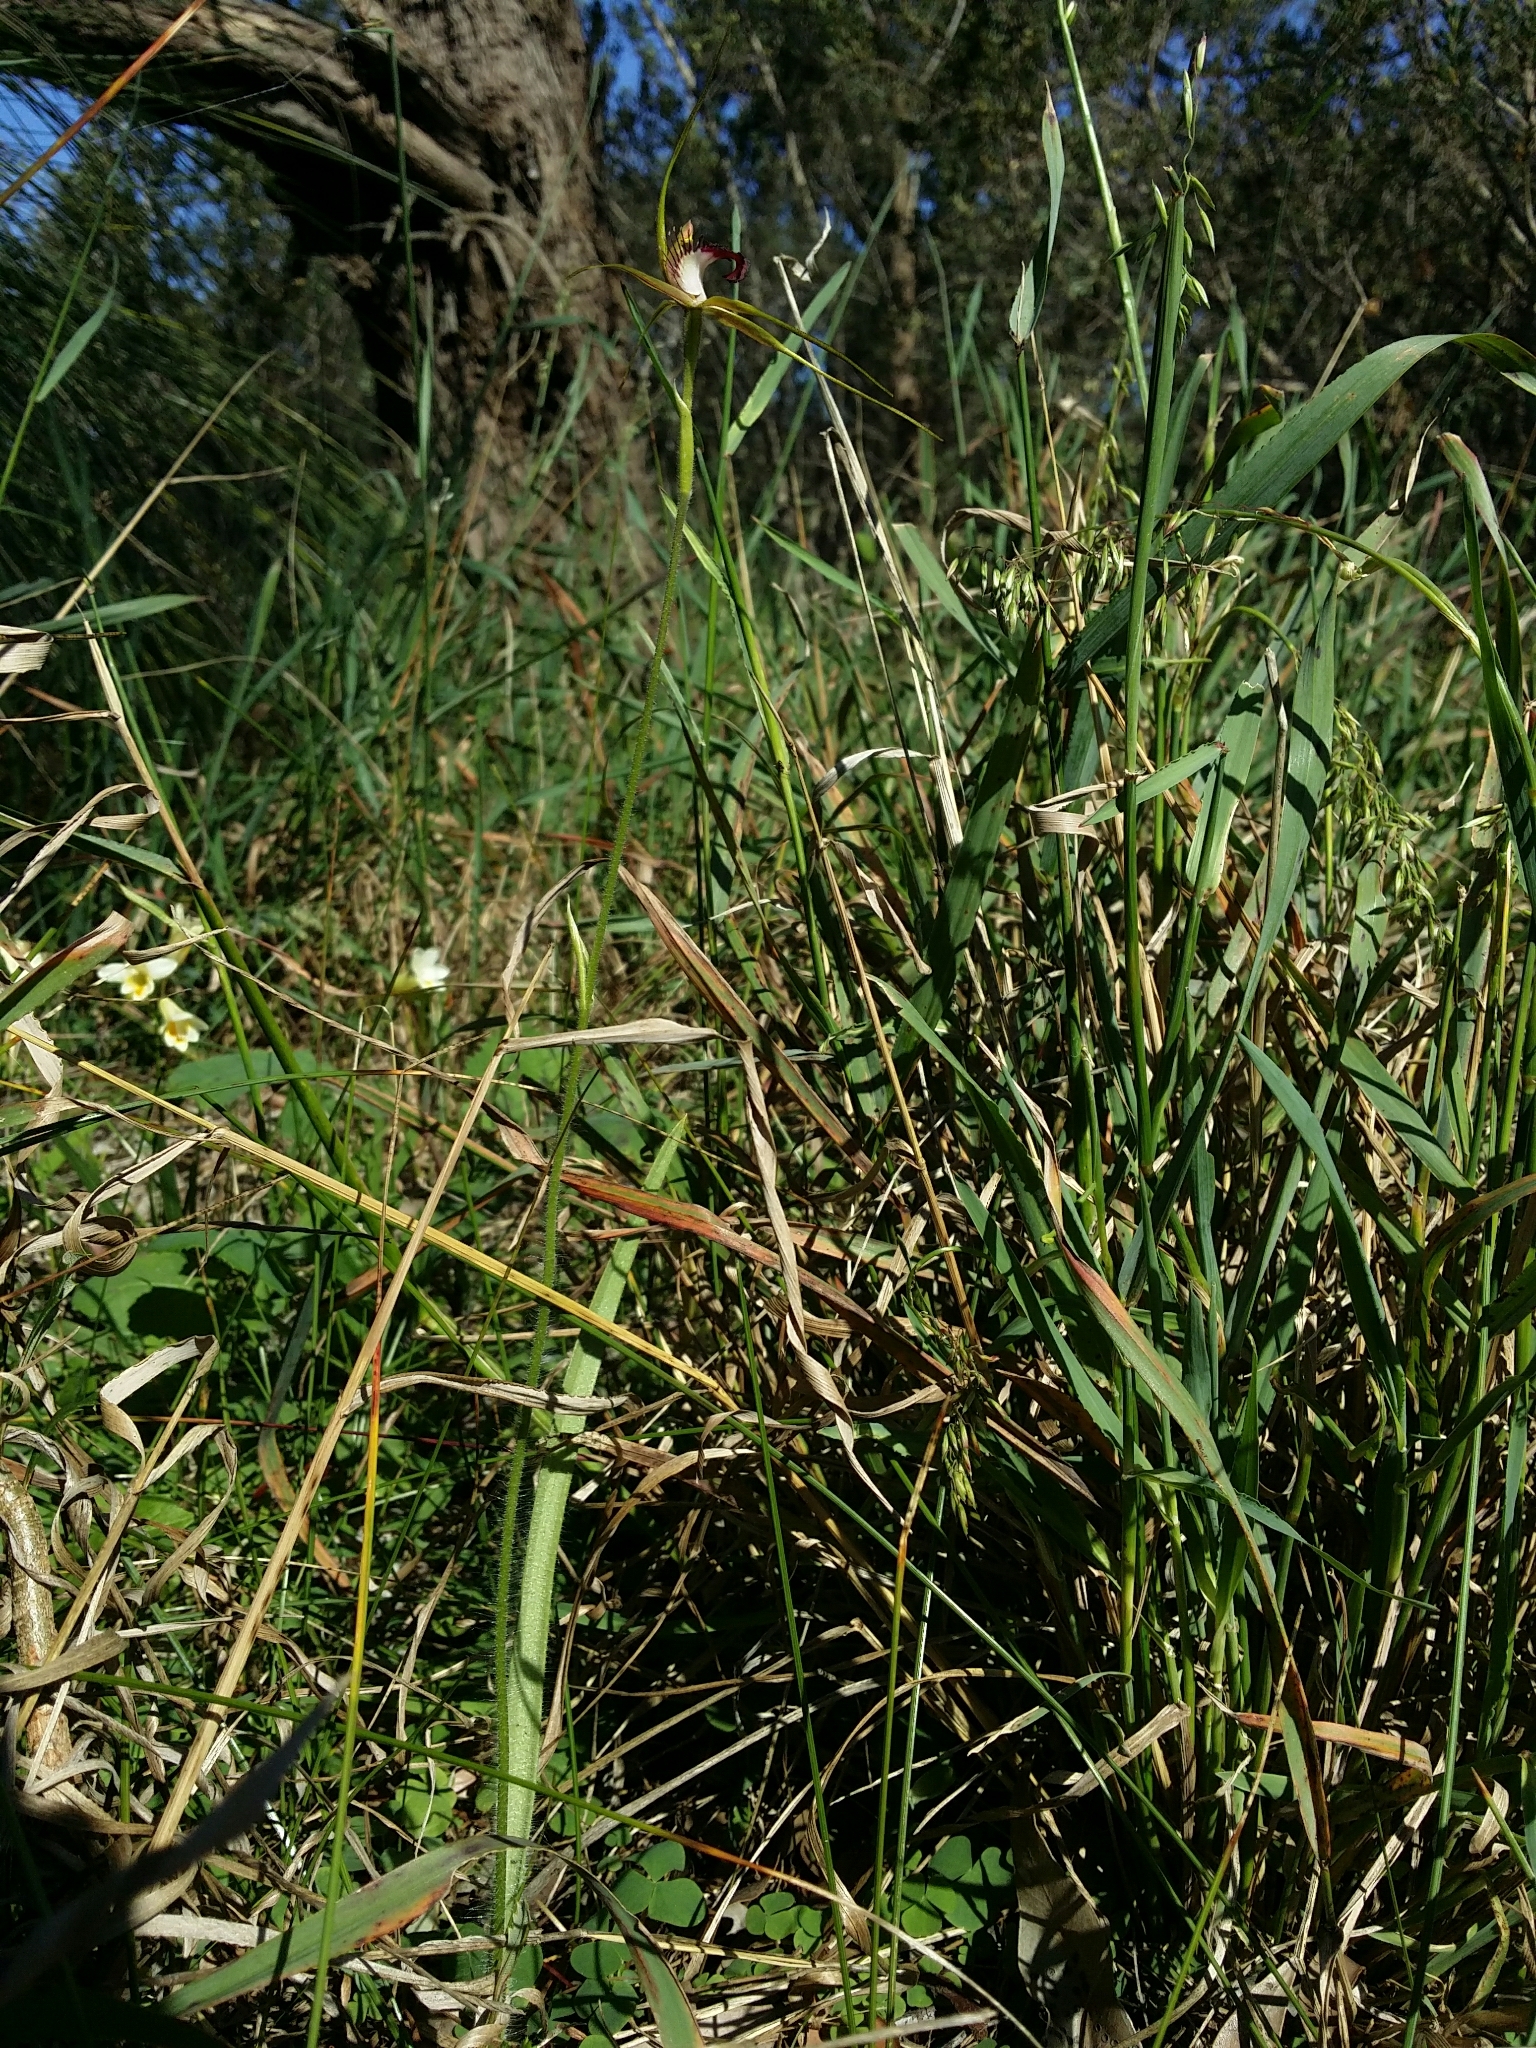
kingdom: Plantae
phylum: Tracheophyta
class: Liliopsida
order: Asparagales
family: Orchidaceae
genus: Caladenia
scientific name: Caladenia arenicola
